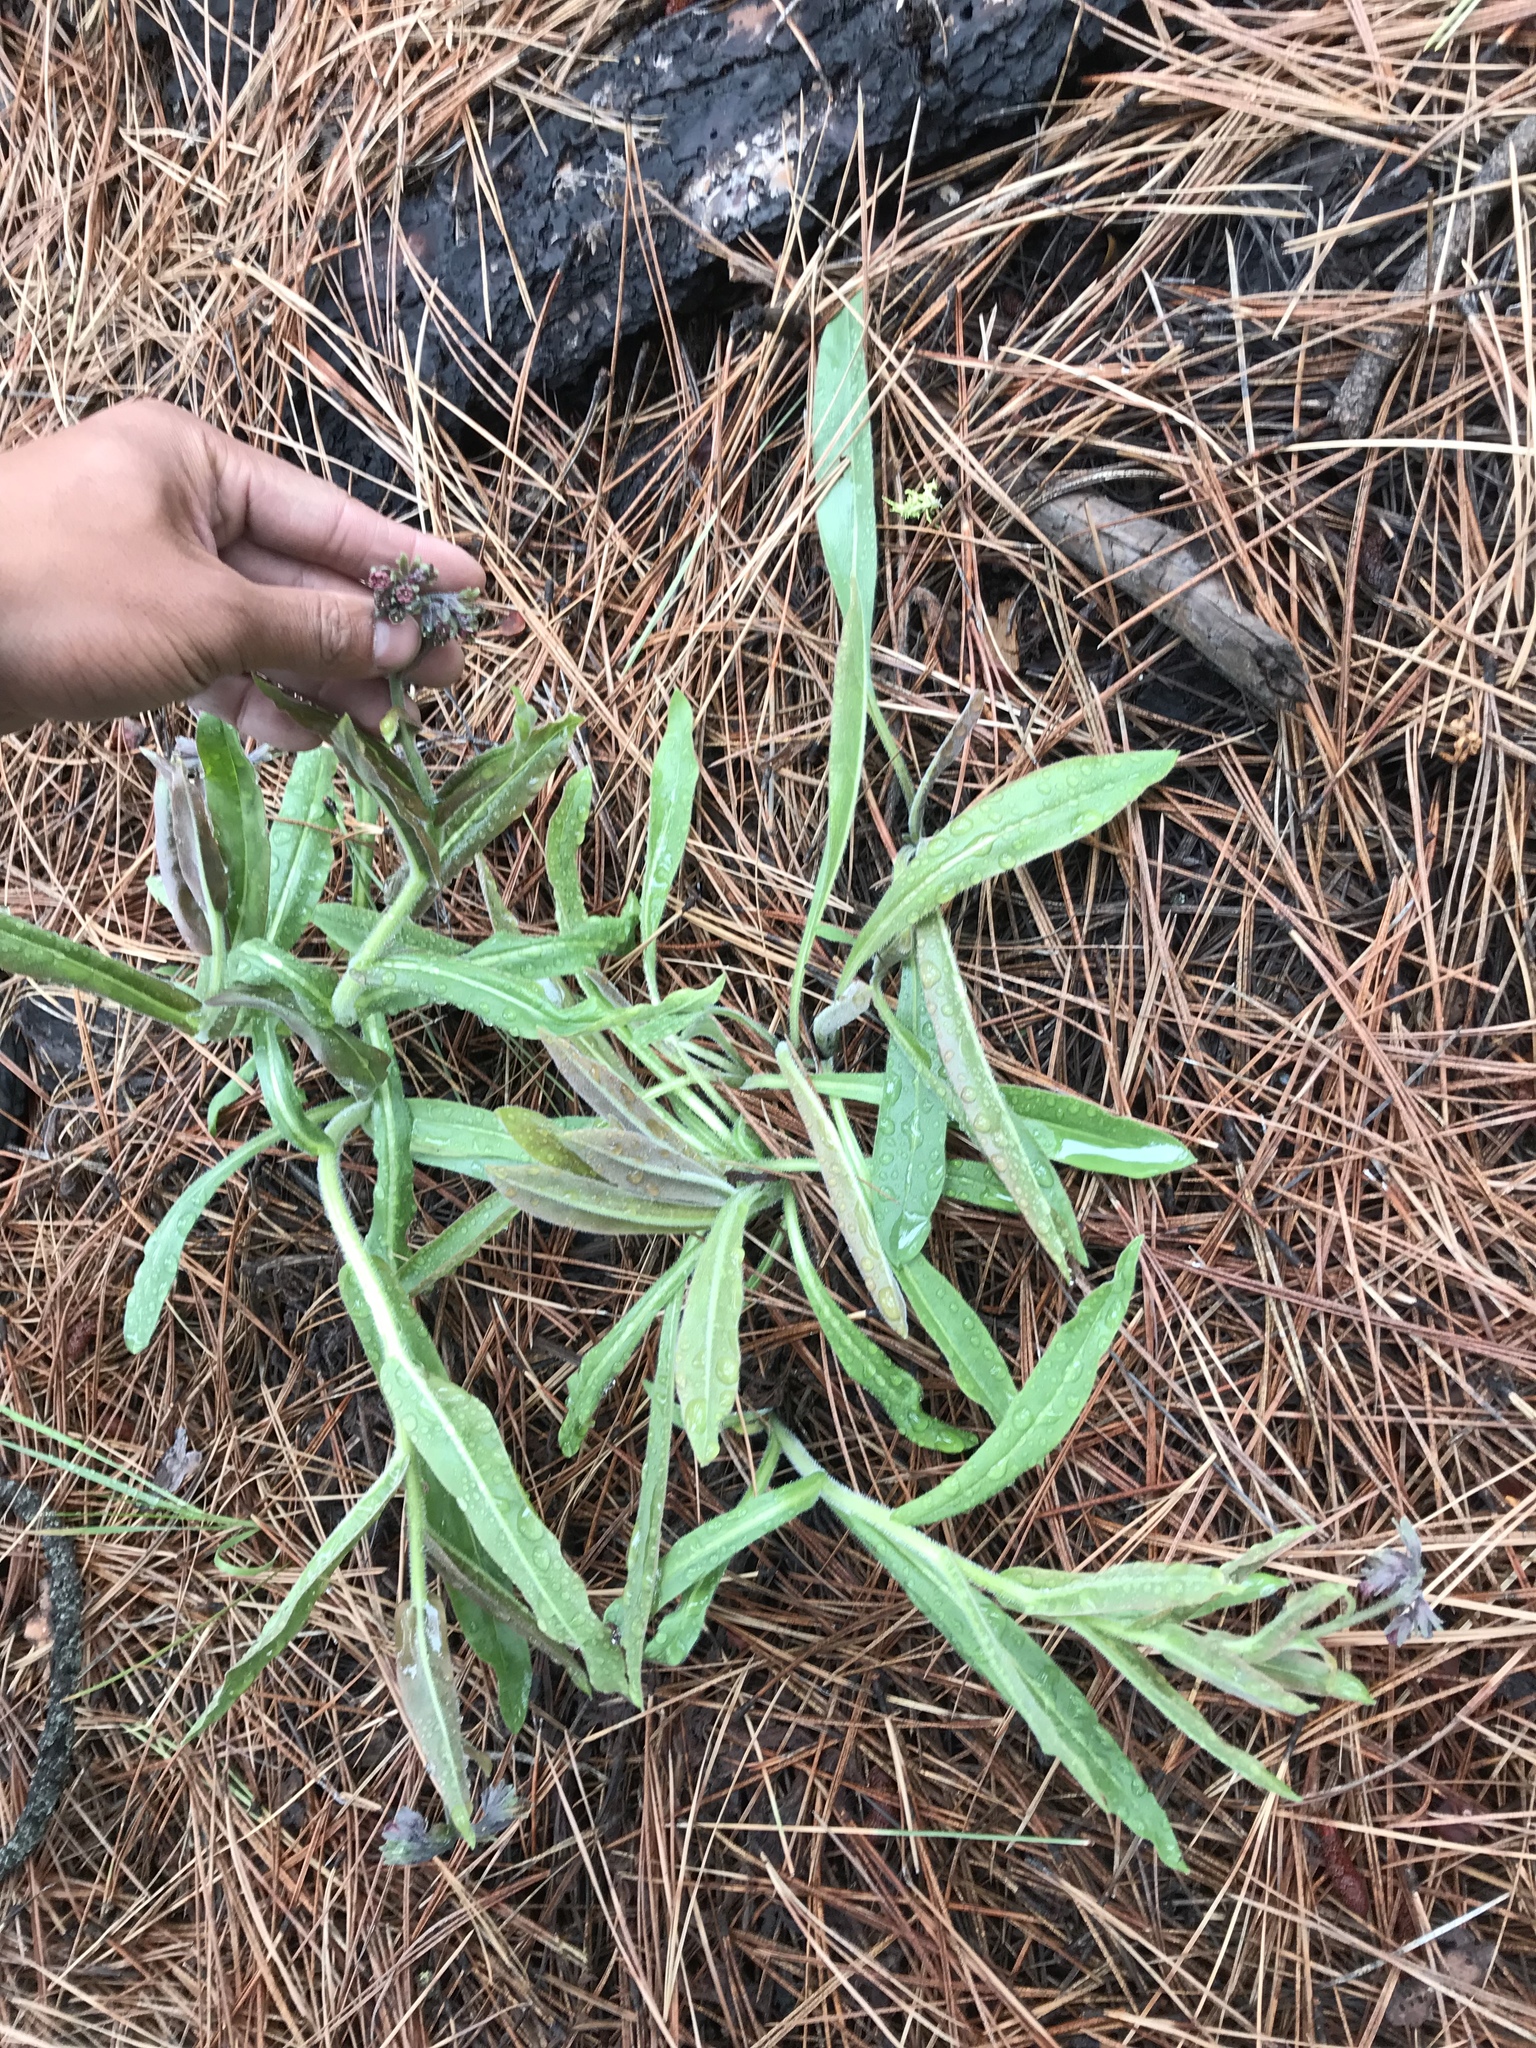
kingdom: Plantae
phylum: Tracheophyta
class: Magnoliopsida
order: Boraginales
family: Boraginaceae
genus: Andersonglossum
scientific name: Andersonglossum occidentale
